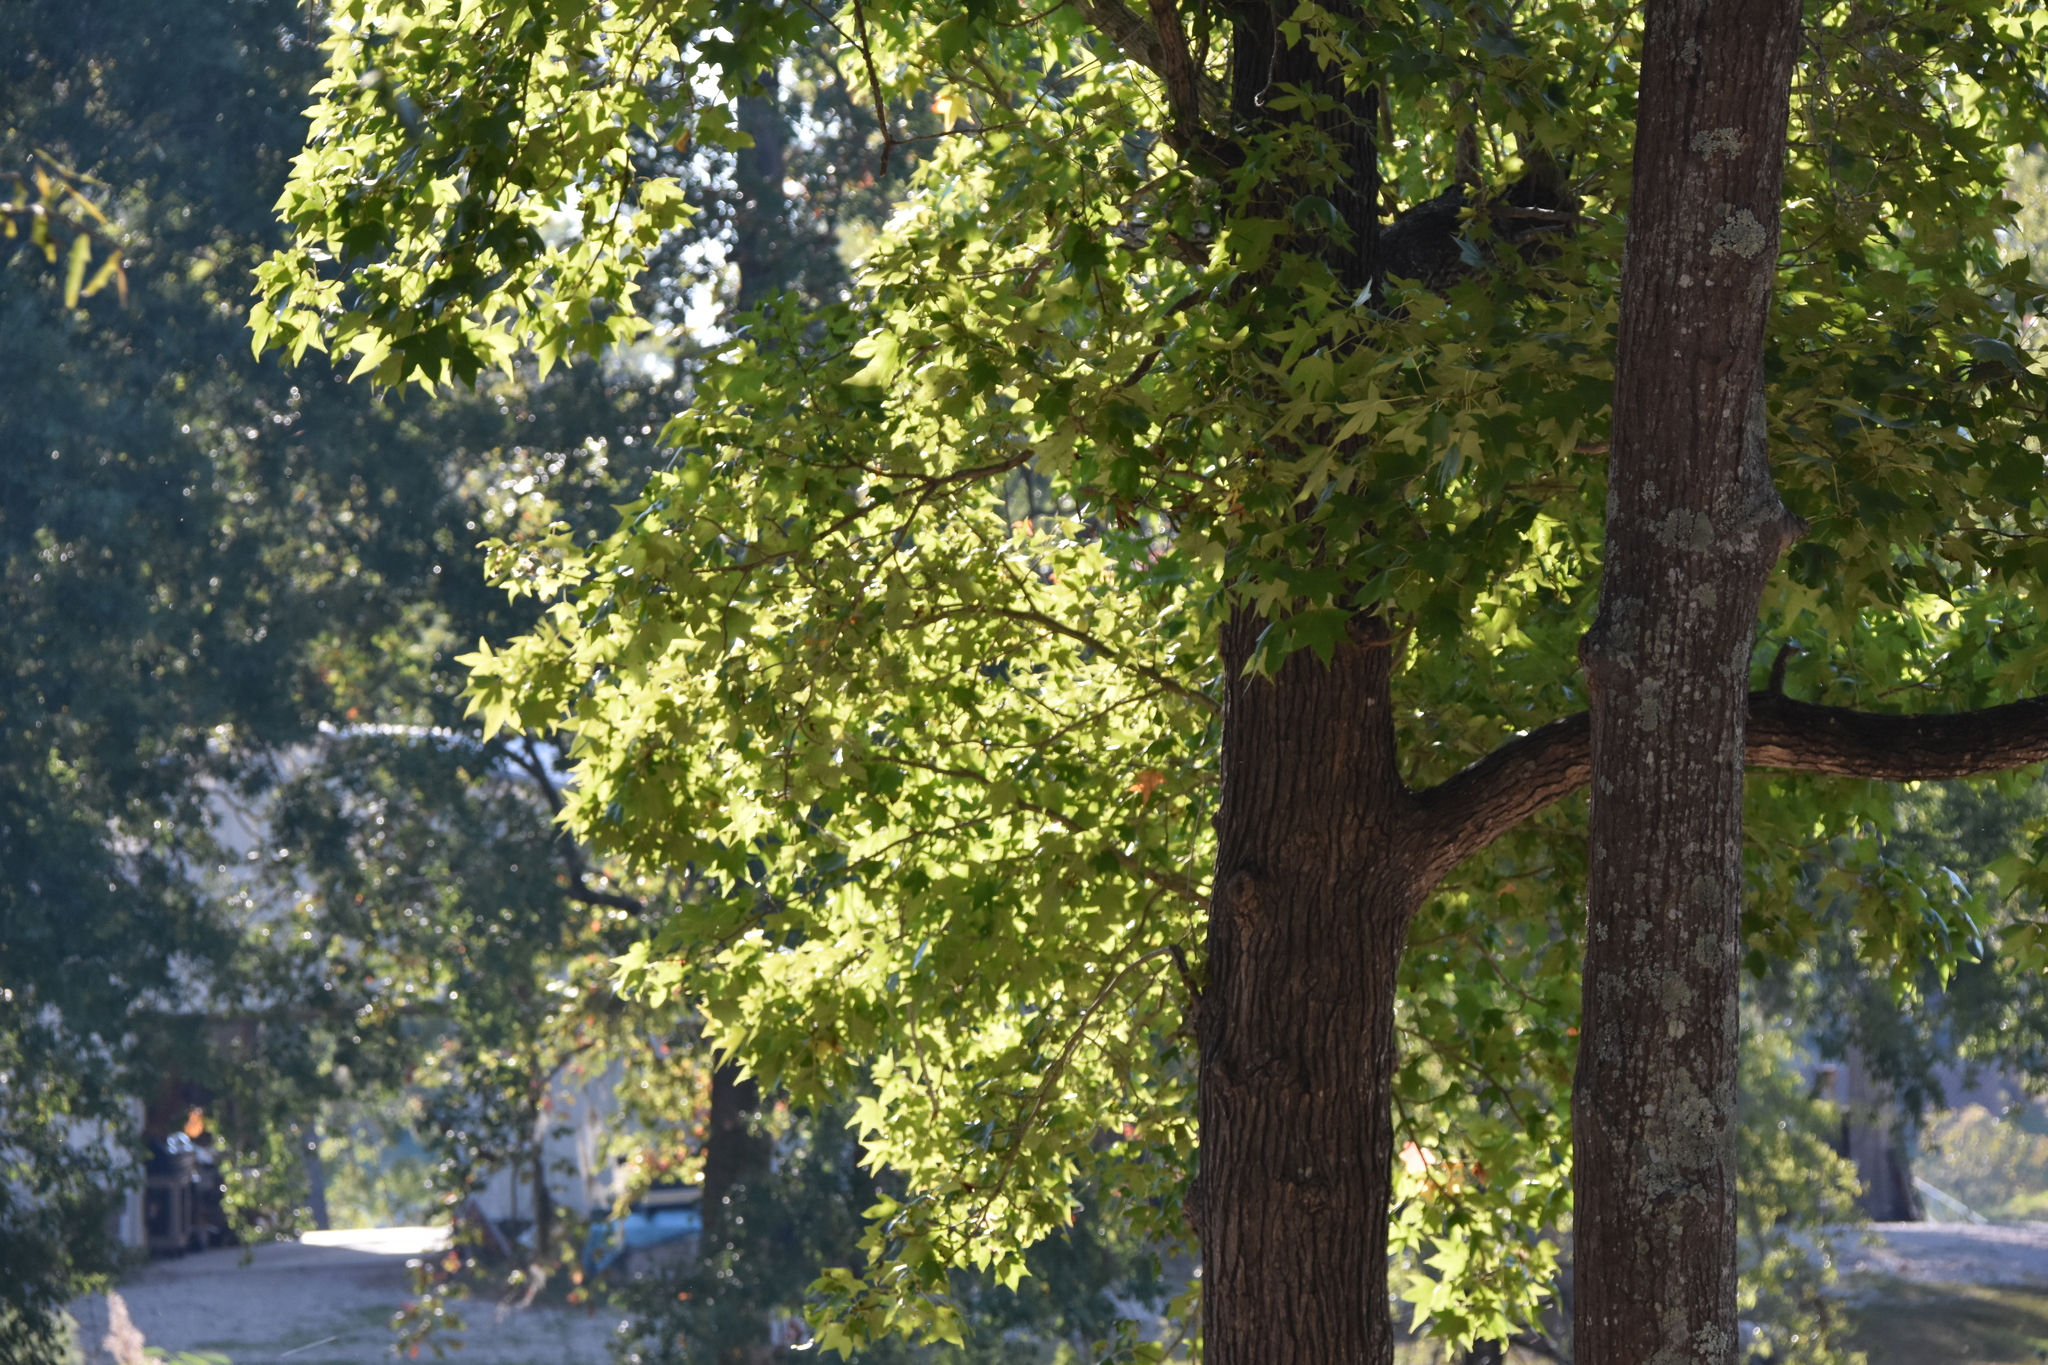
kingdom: Plantae
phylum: Tracheophyta
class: Magnoliopsida
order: Saxifragales
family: Altingiaceae
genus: Liquidambar
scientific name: Liquidambar styraciflua
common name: Sweet gum
